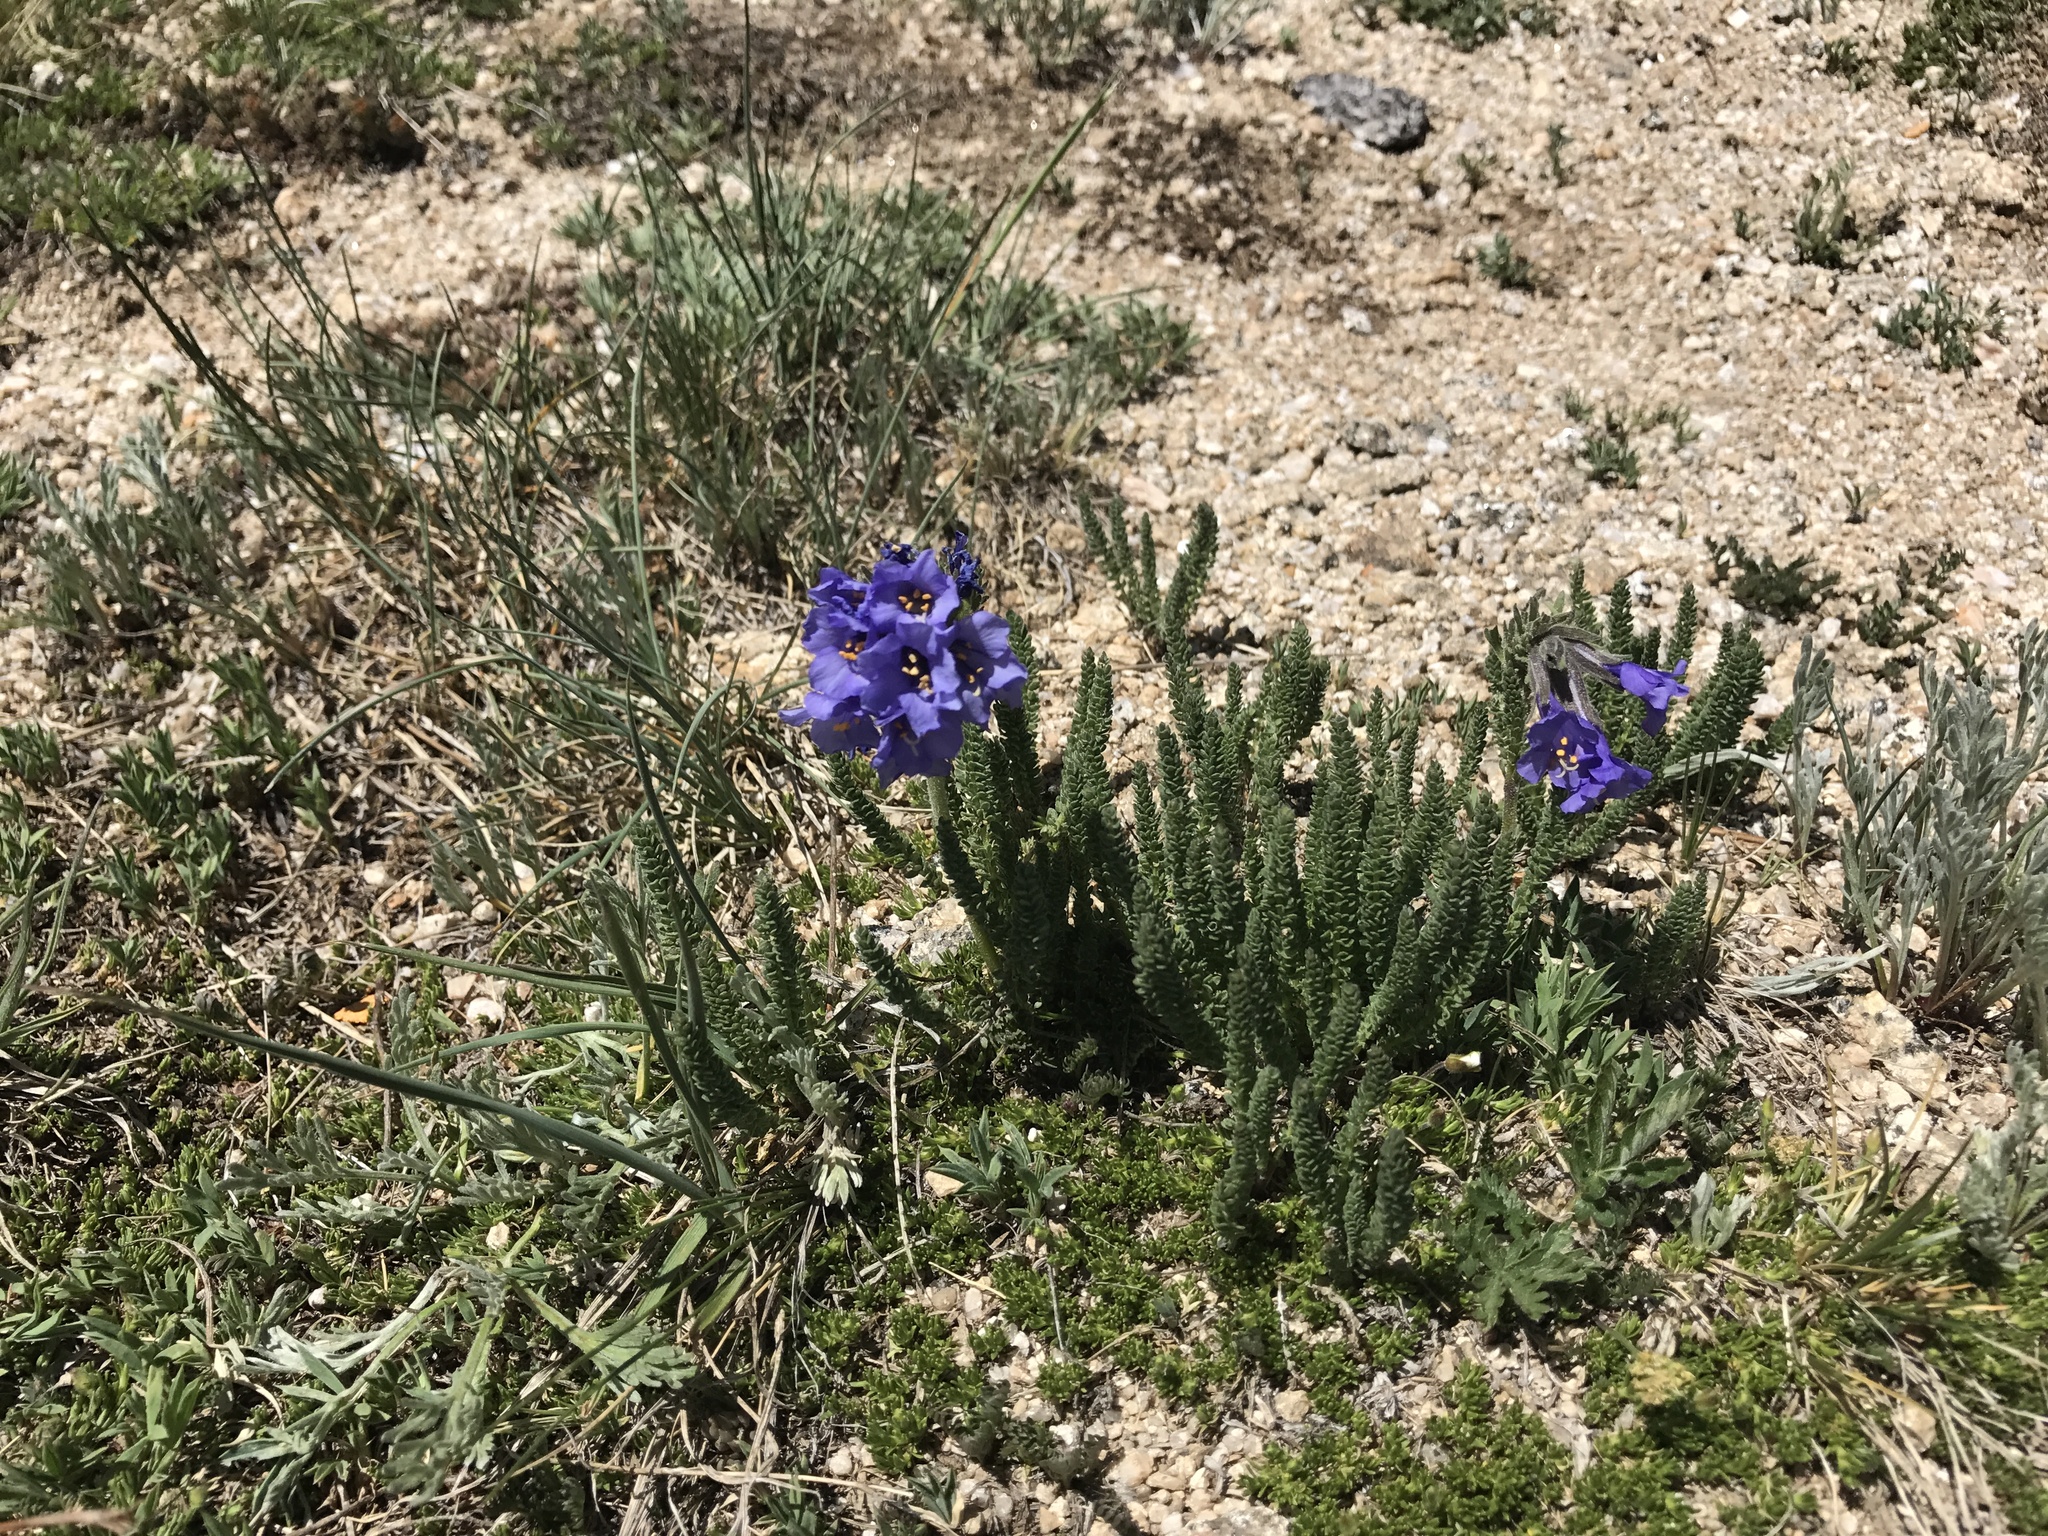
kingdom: Plantae
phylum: Tracheophyta
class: Magnoliopsida
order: Ericales
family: Polemoniaceae
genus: Polemonium
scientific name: Polemonium viscosum
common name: Skunk jacob's-ladder
